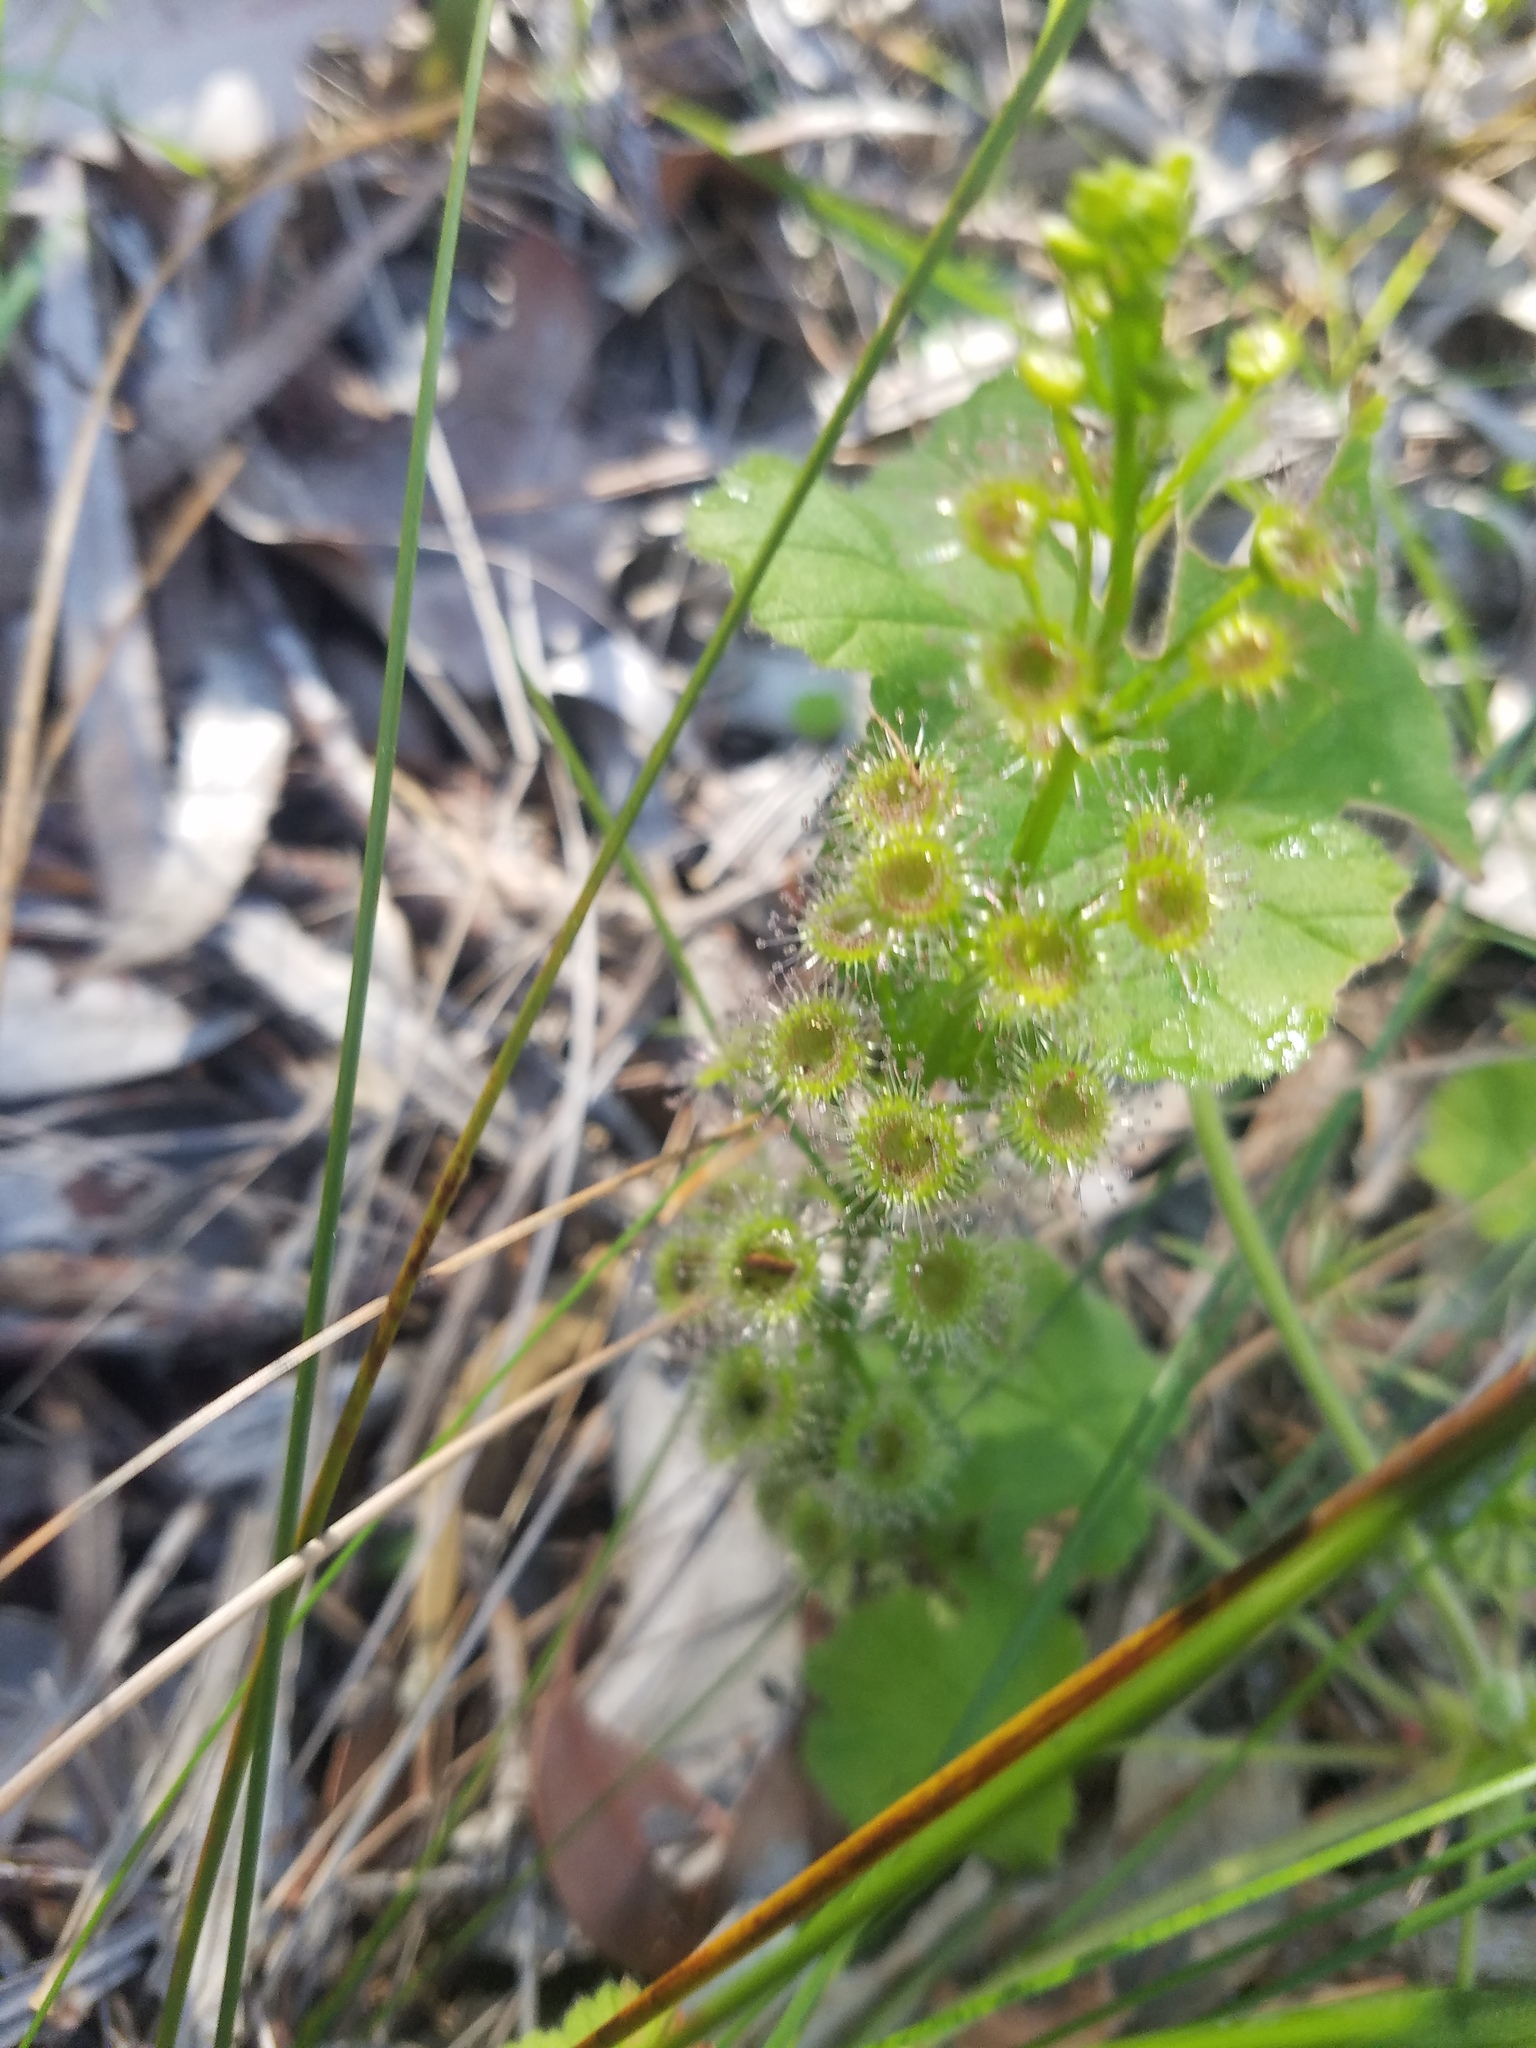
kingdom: Plantae
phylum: Tracheophyta
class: Magnoliopsida
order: Caryophyllales
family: Droseraceae
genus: Drosera
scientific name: Drosera stolonifera
